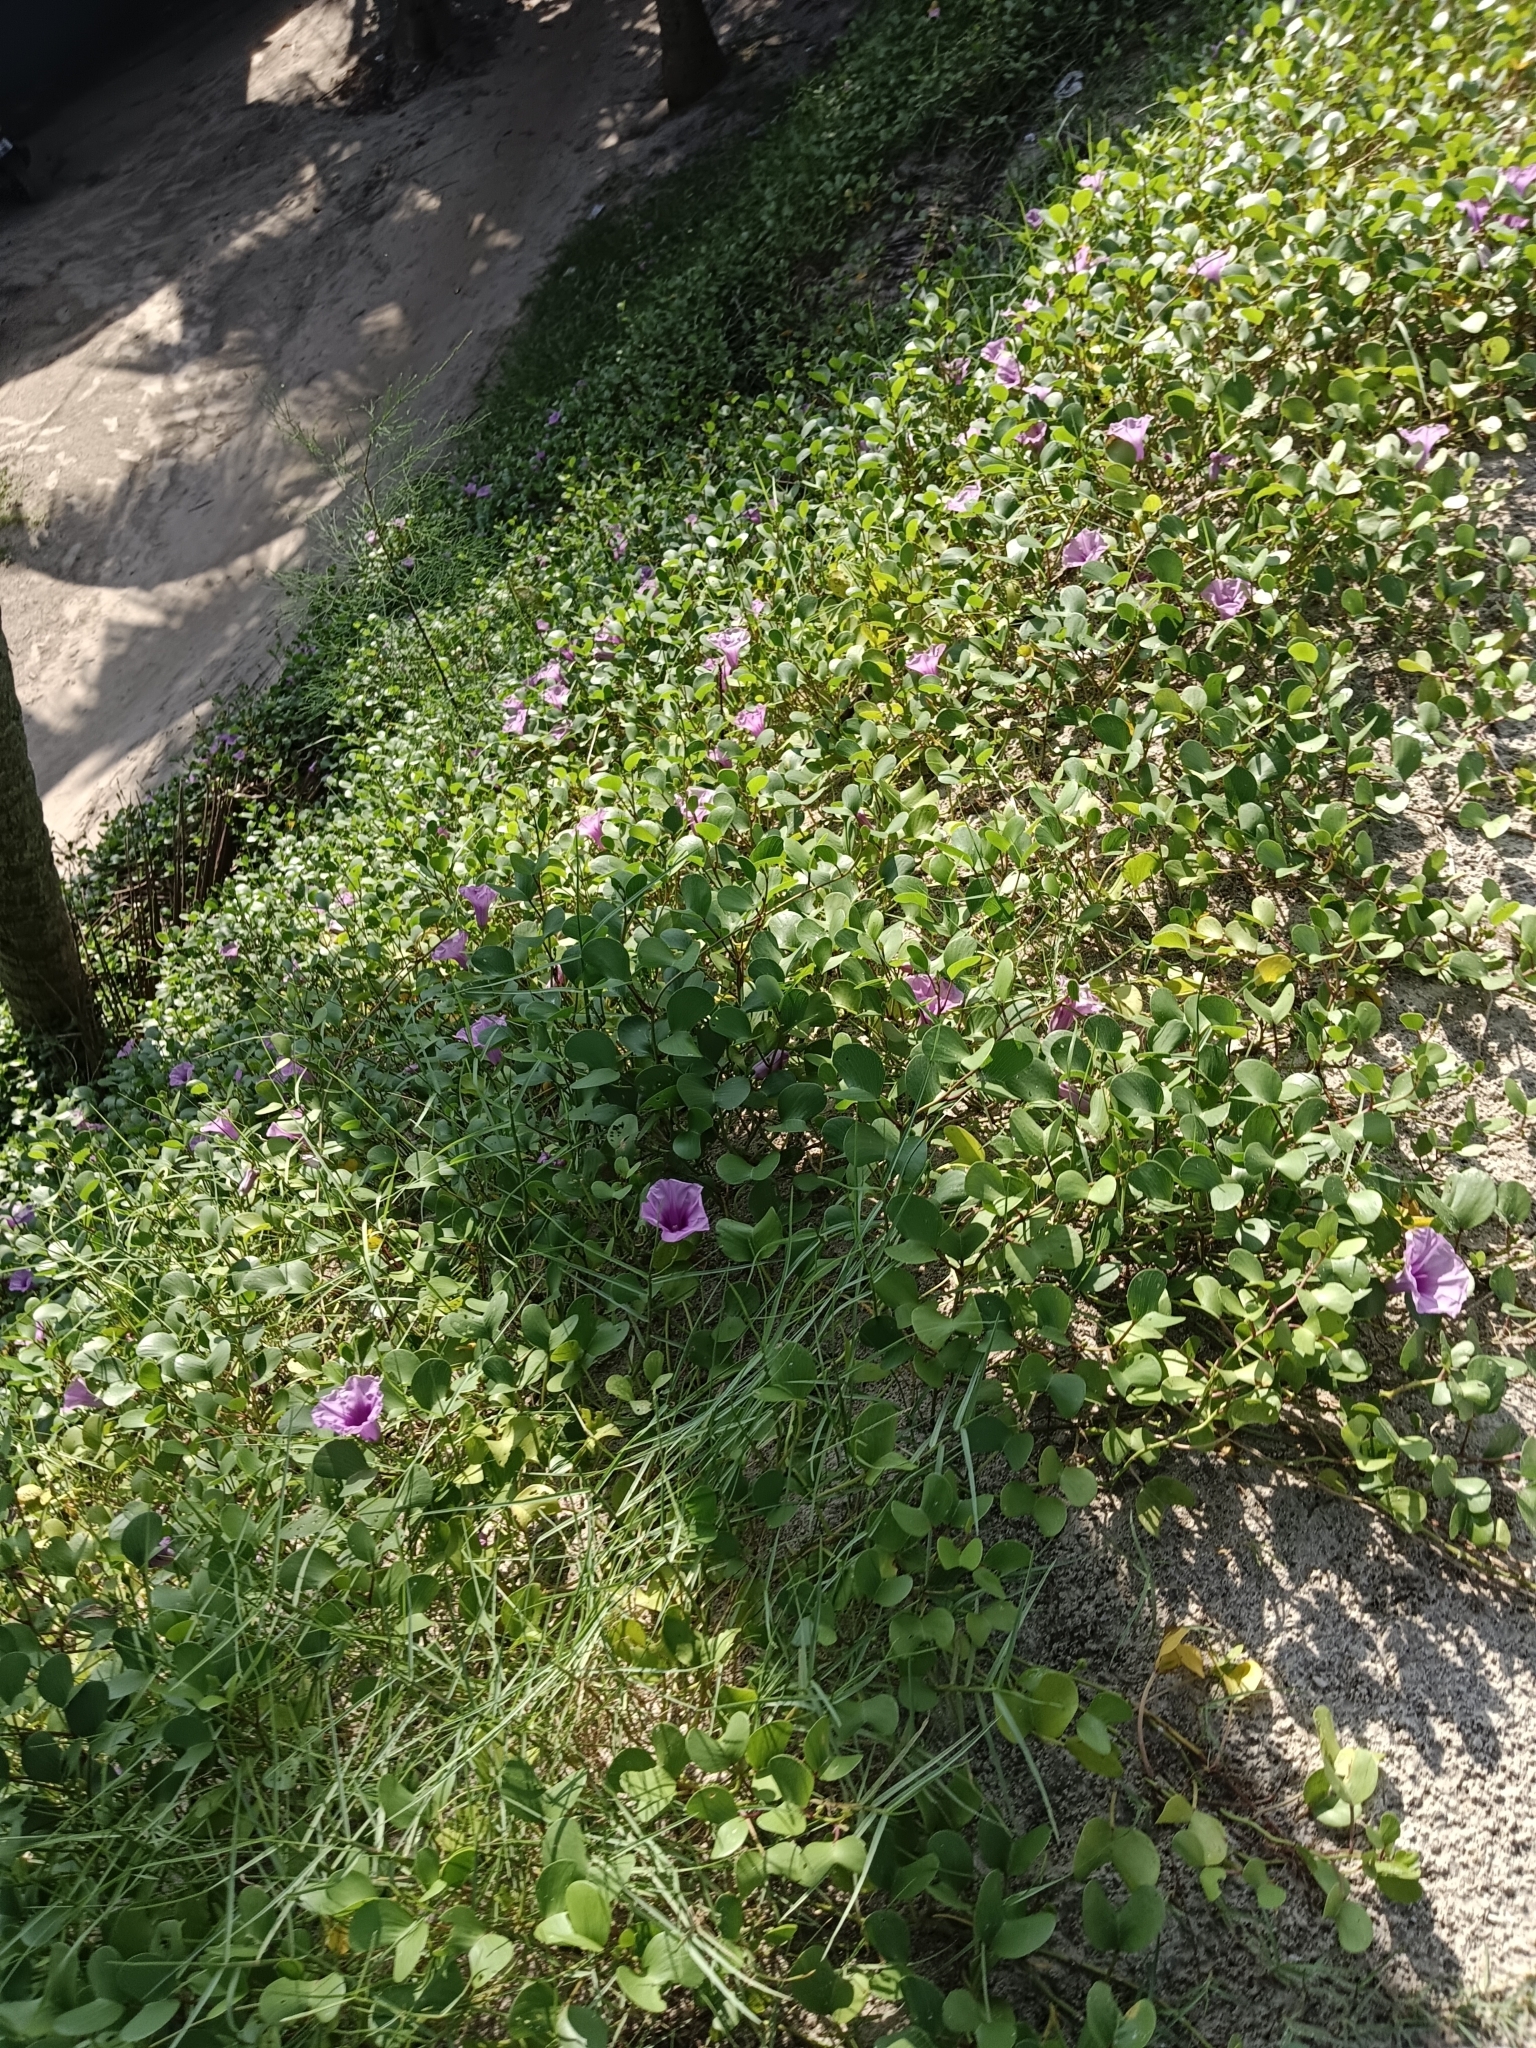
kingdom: Plantae
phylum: Tracheophyta
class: Magnoliopsida
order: Solanales
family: Convolvulaceae
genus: Ipomoea
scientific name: Ipomoea pes-caprae
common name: Beach morning glory
